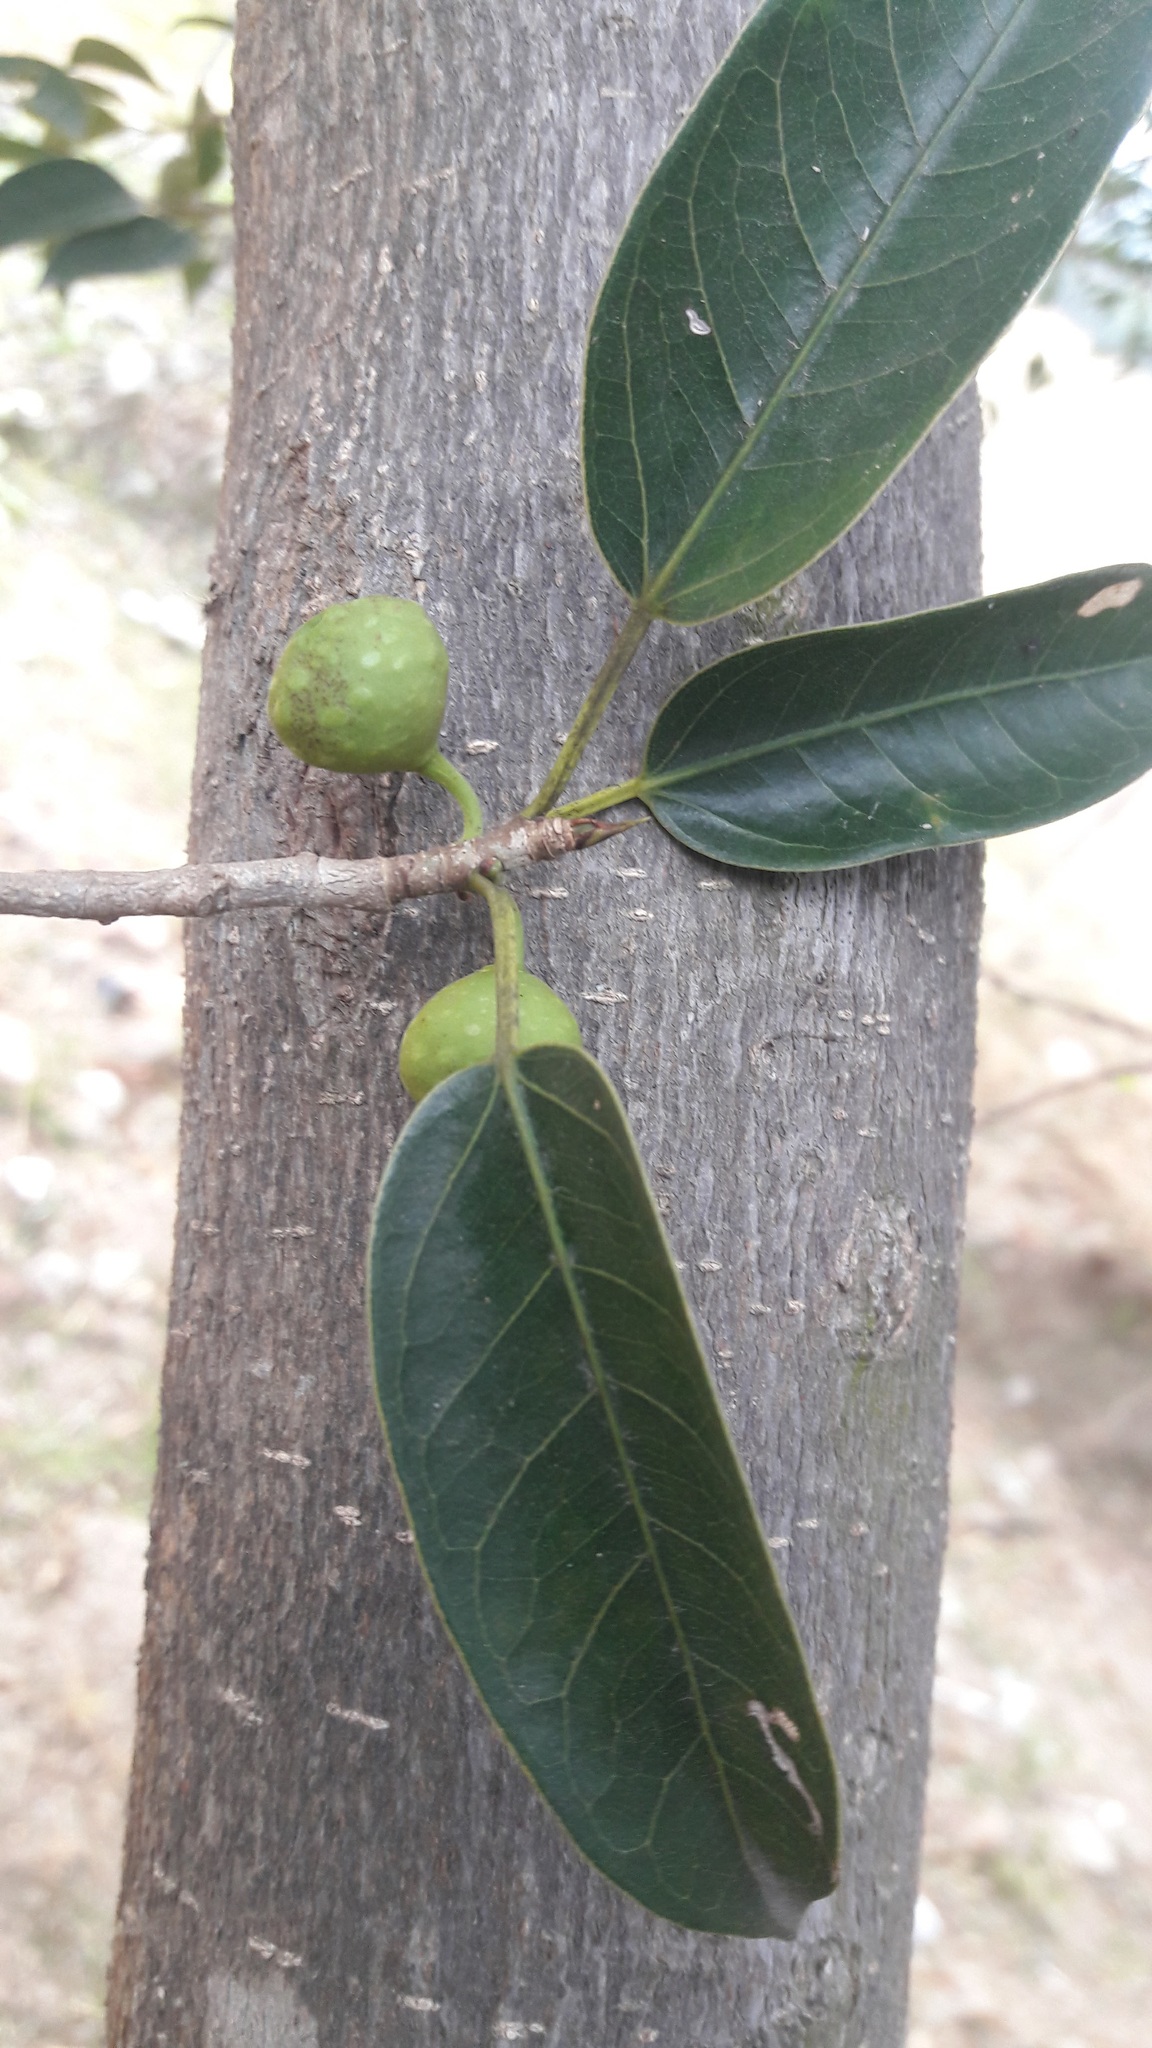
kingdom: Plantae
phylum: Tracheophyta
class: Magnoliopsida
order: Rosales
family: Moraceae
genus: Ficus
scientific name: Ficus crocata
